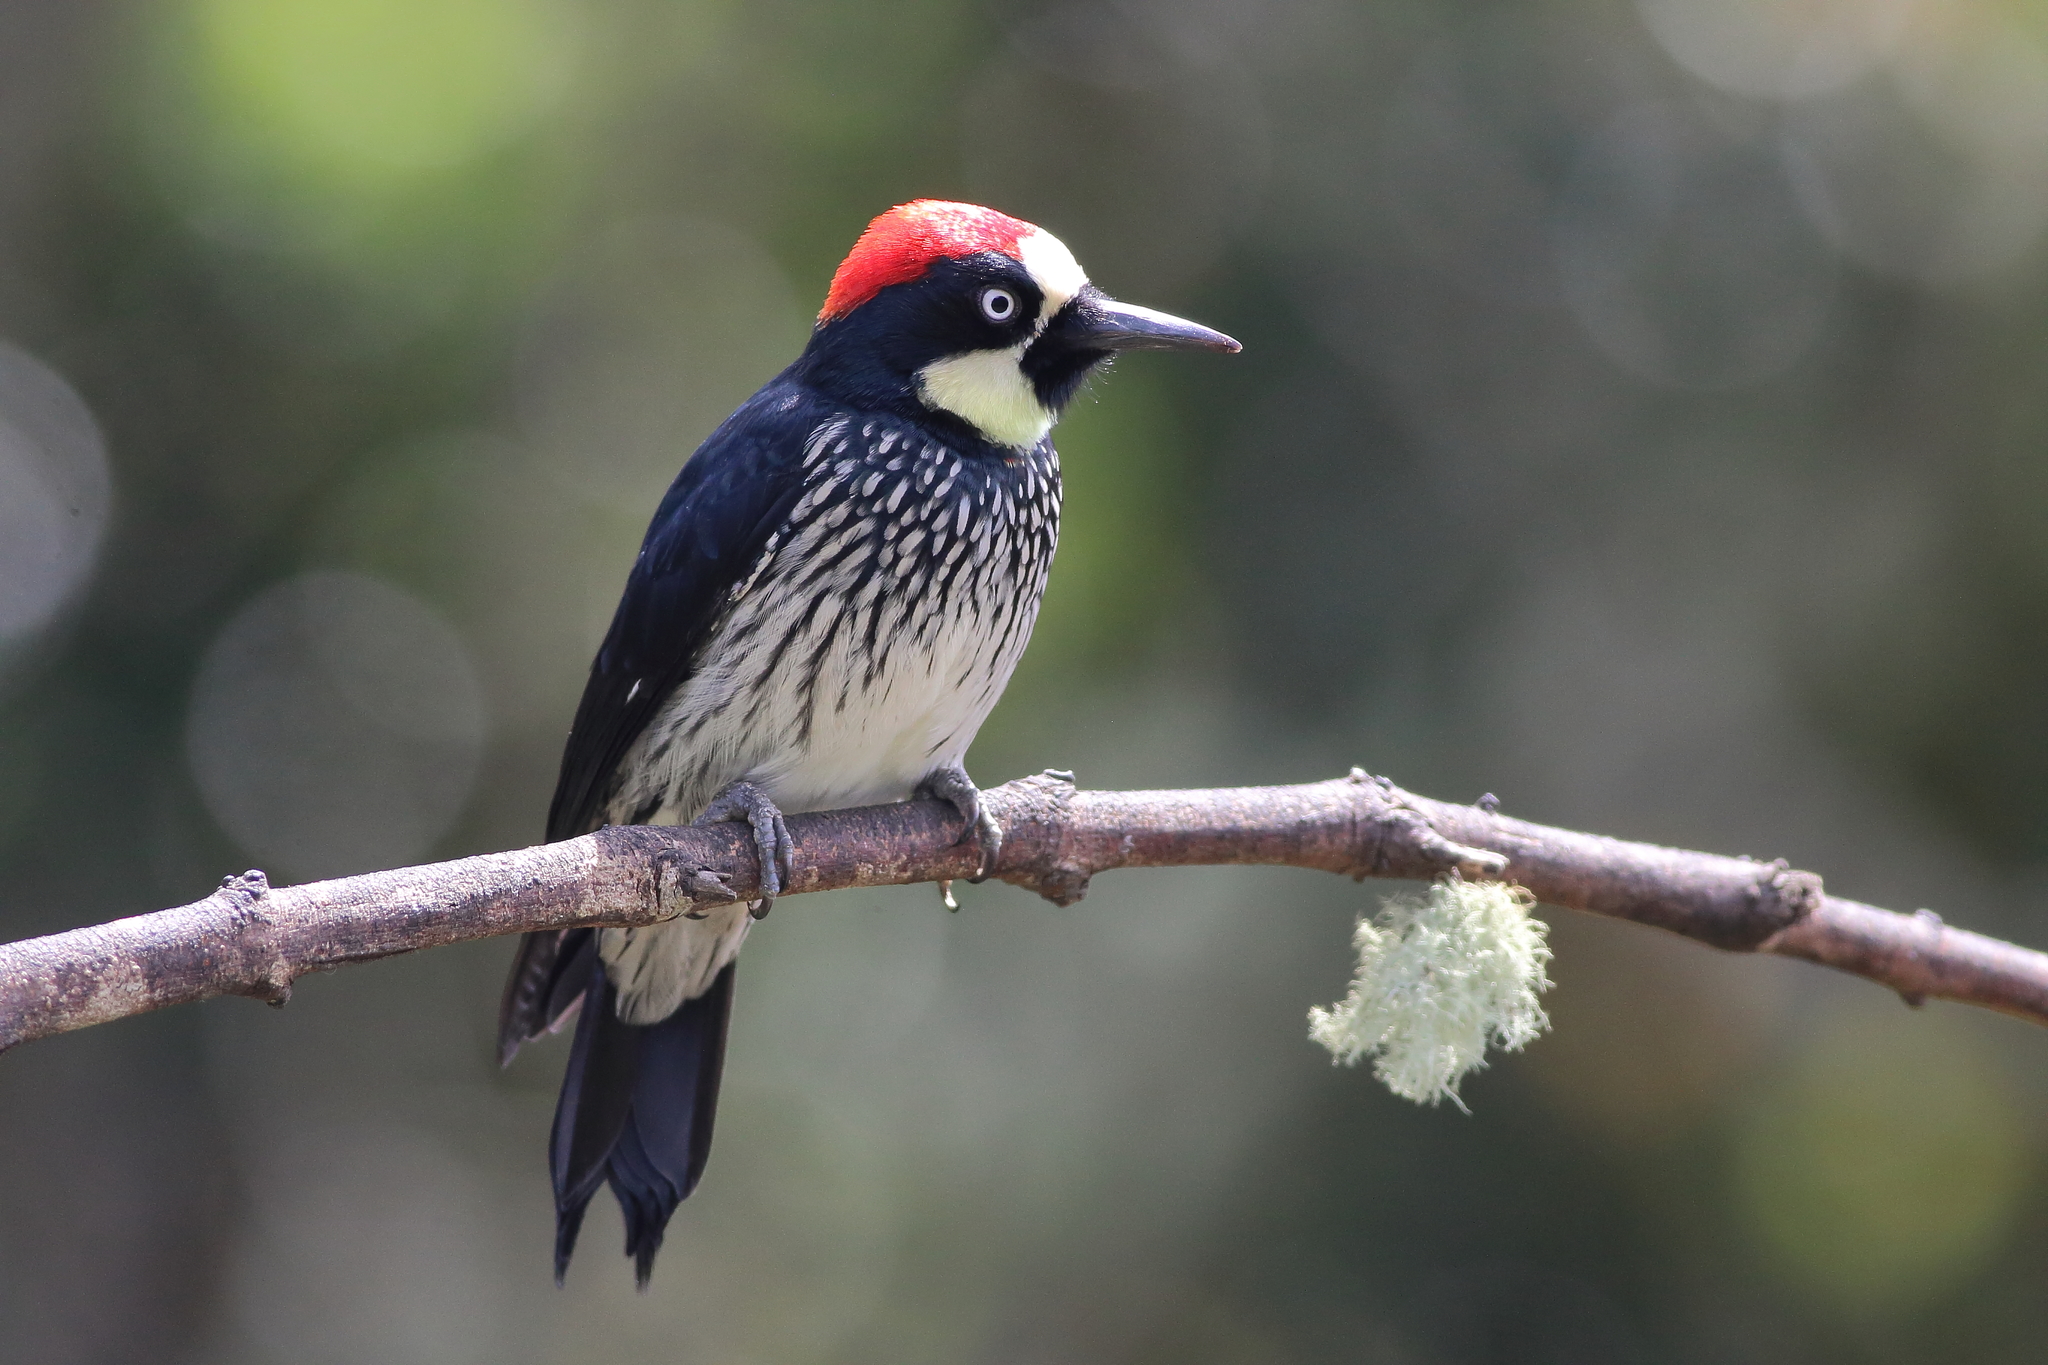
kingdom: Animalia
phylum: Chordata
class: Aves
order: Piciformes
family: Picidae
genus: Melanerpes
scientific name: Melanerpes formicivorus
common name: Acorn woodpecker
